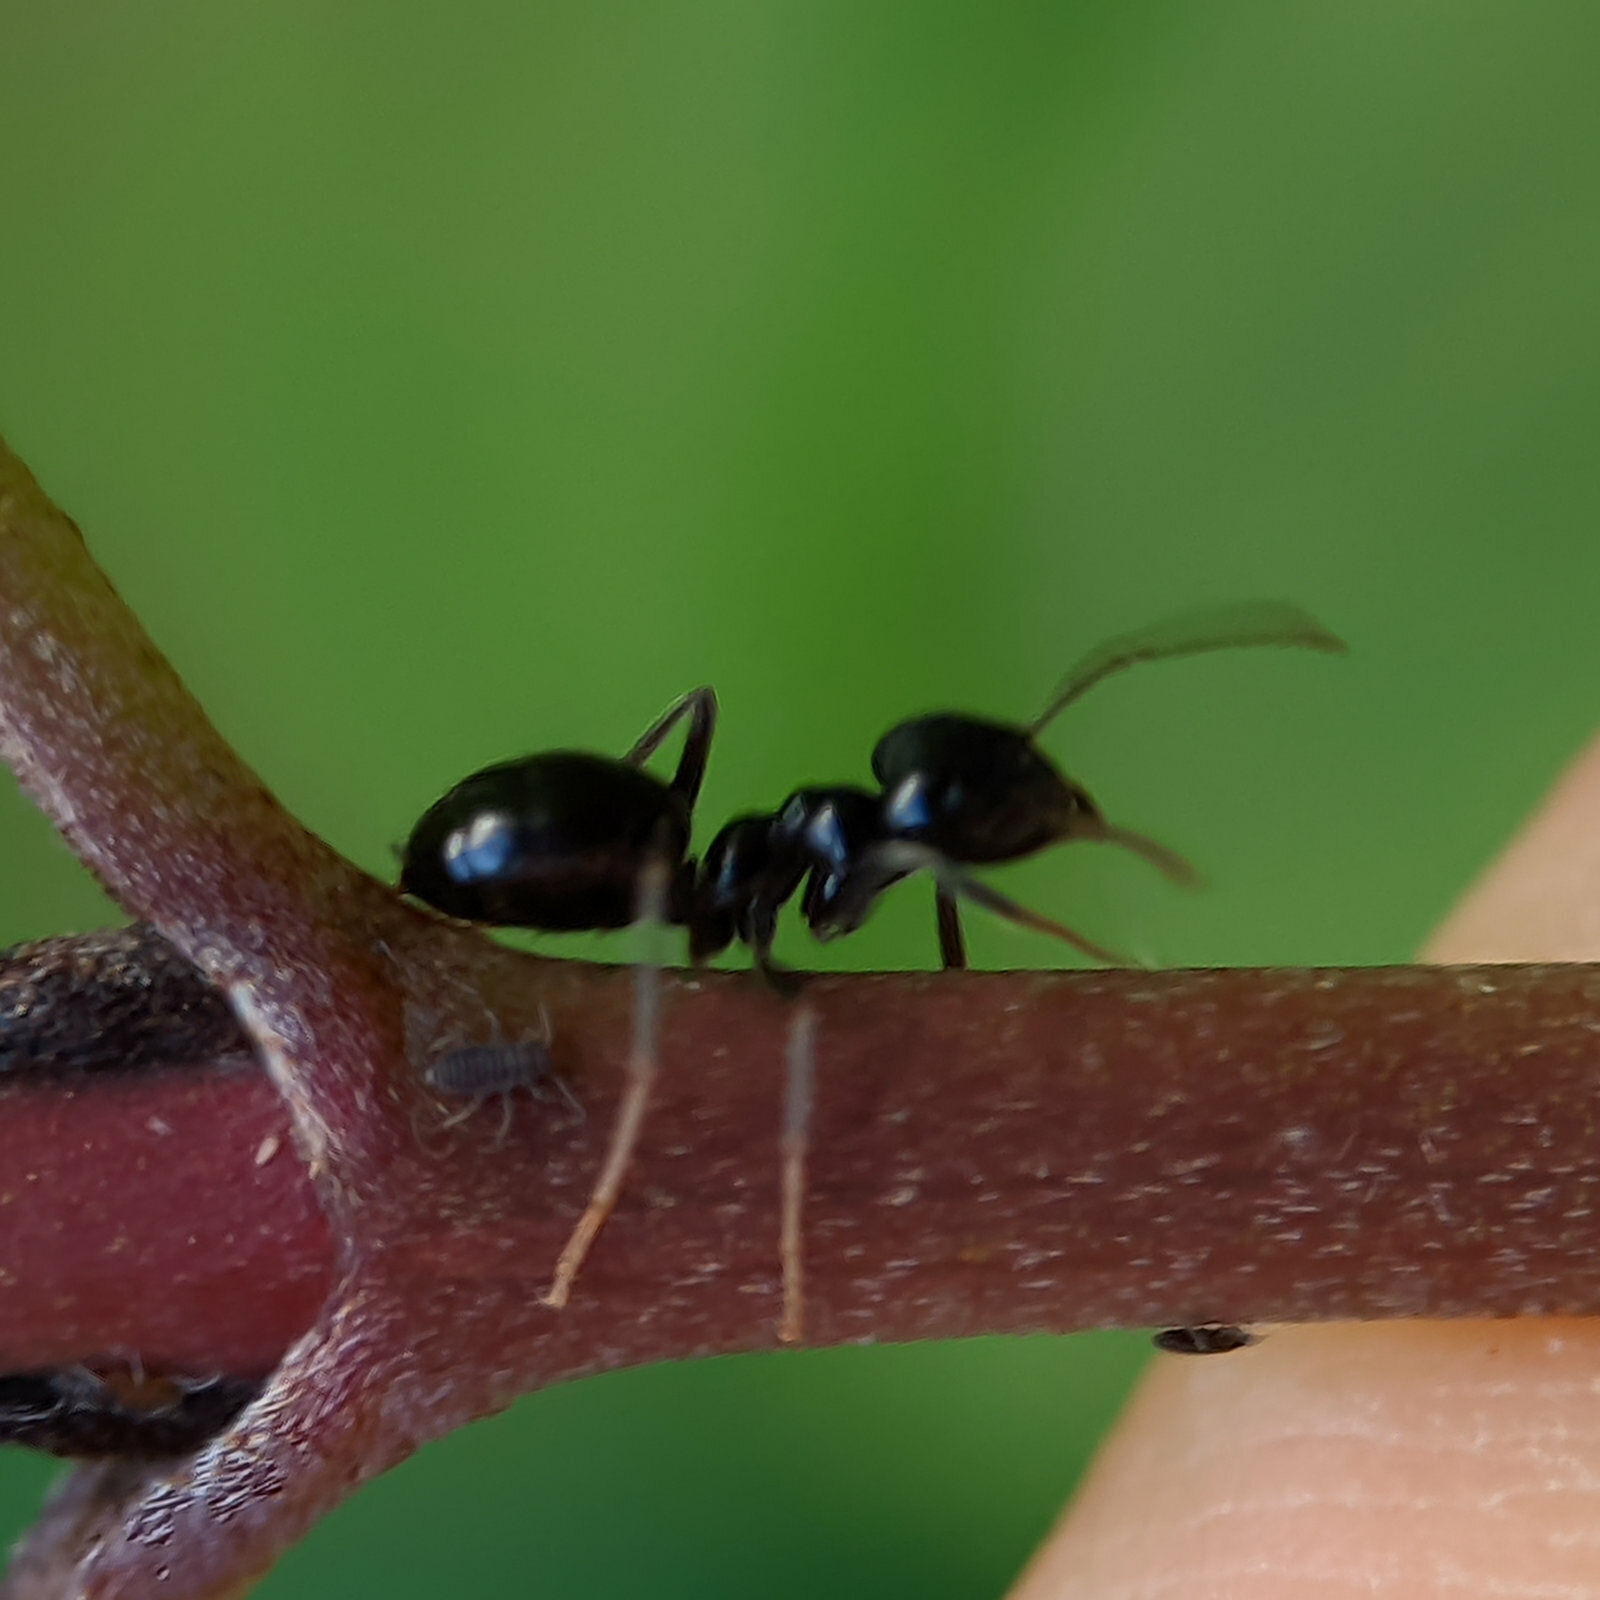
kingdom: Animalia
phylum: Arthropoda
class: Insecta
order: Hymenoptera
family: Formicidae
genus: Lasius
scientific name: Lasius fuliginosus
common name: Jet ant
